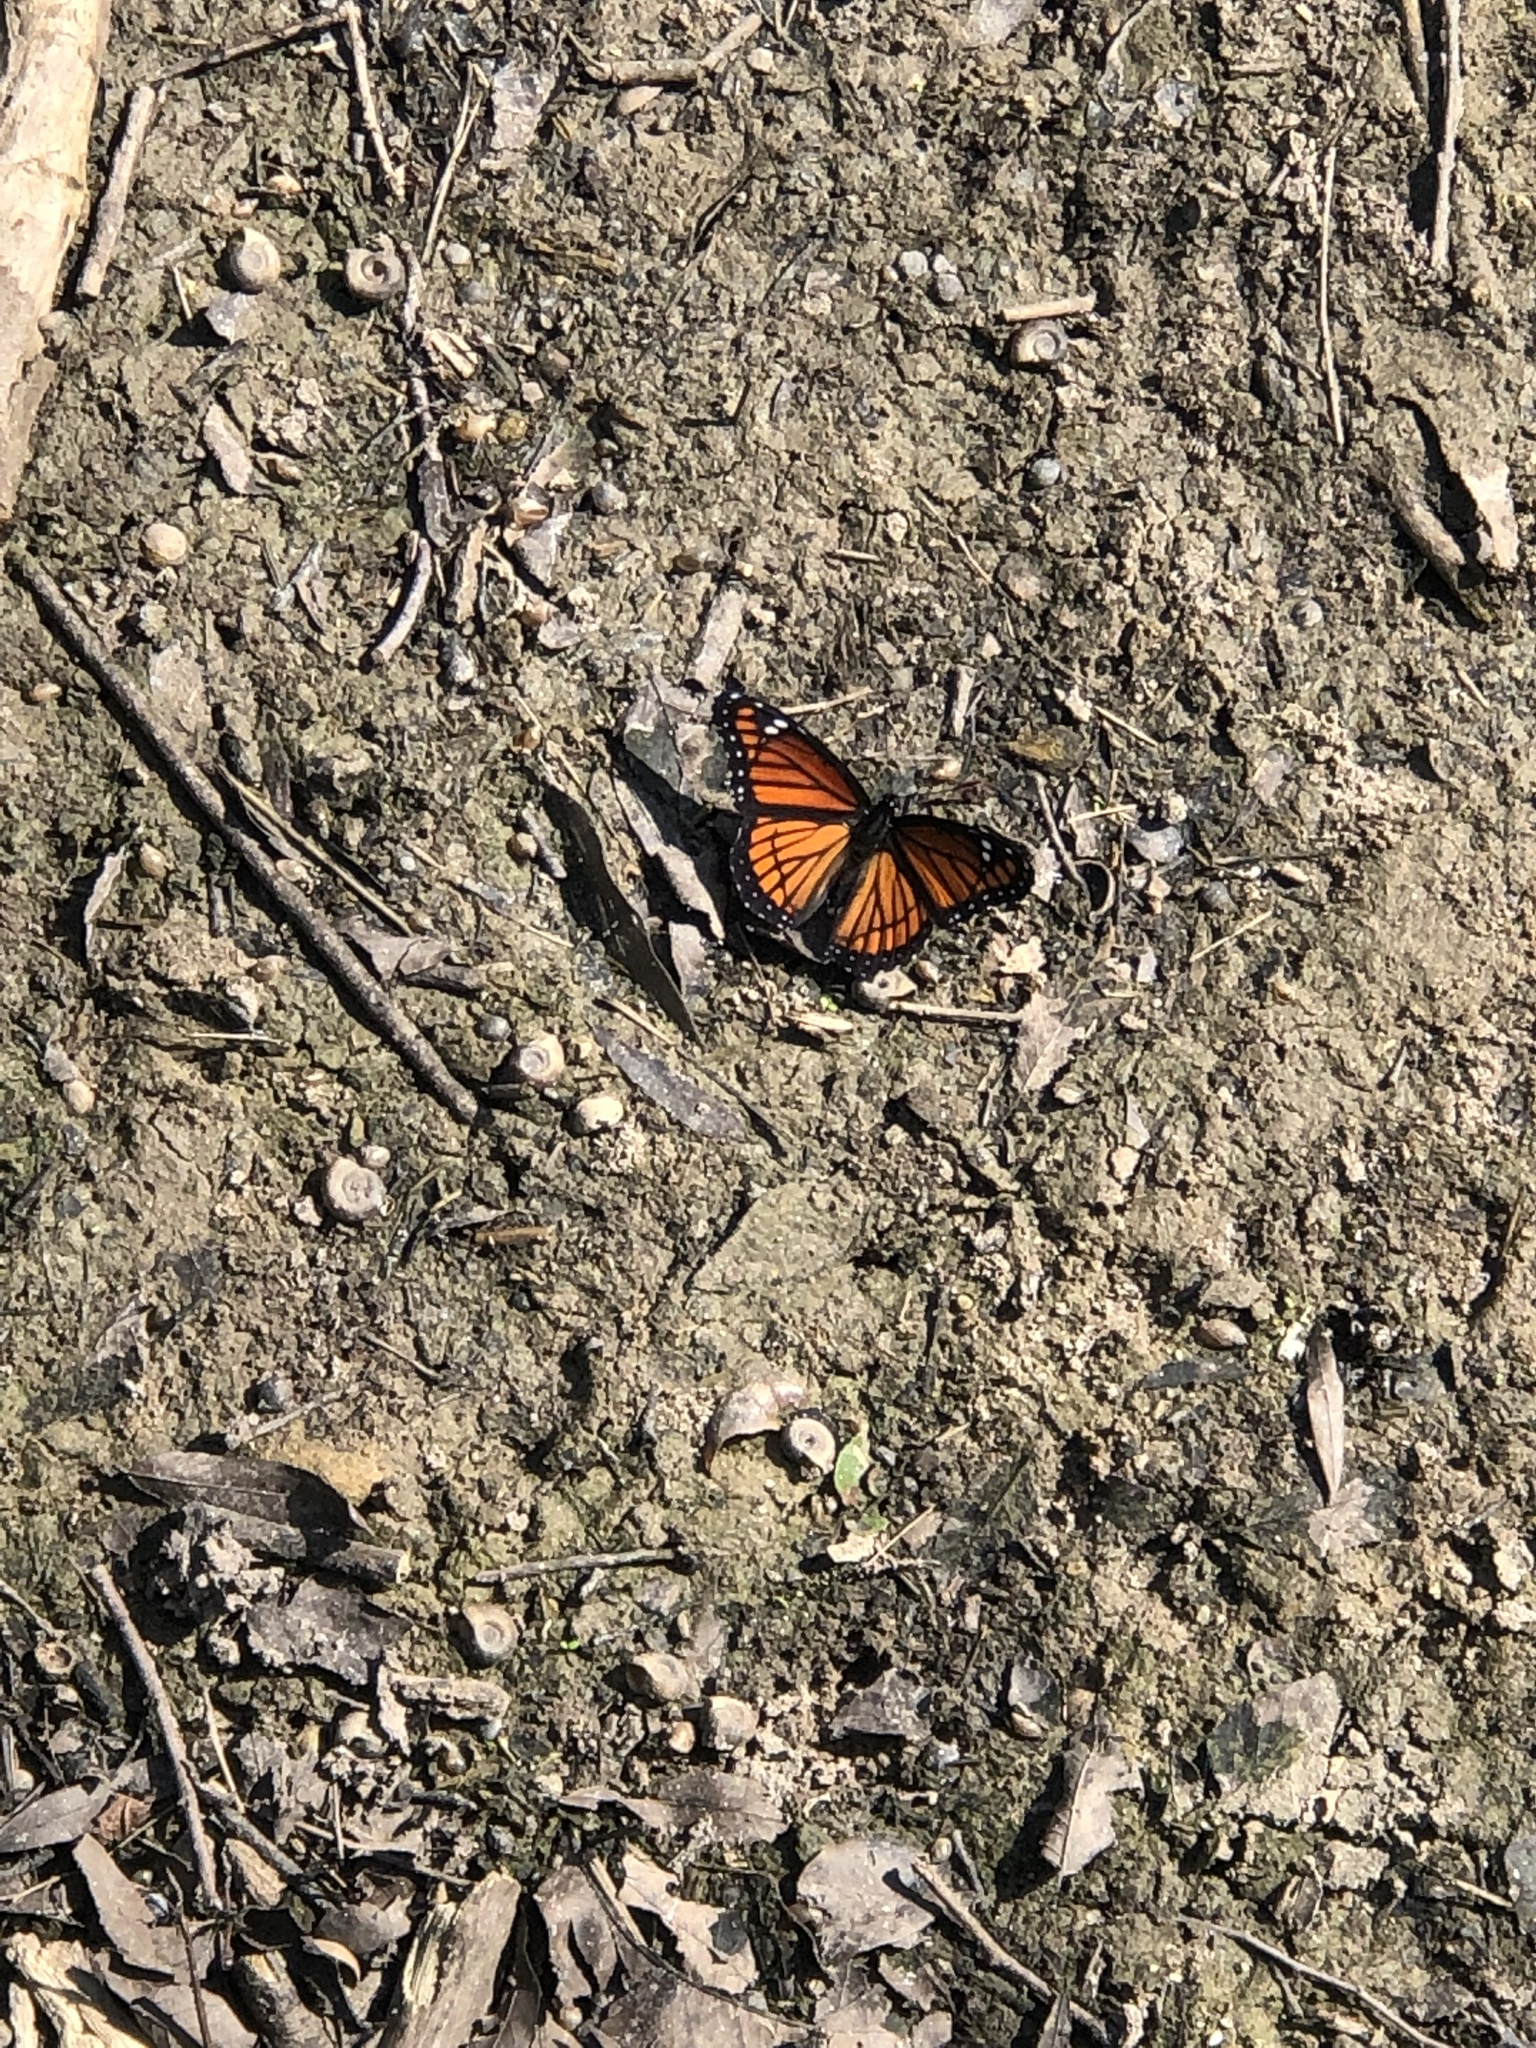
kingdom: Animalia
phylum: Arthropoda
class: Insecta
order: Lepidoptera
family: Nymphalidae
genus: Limenitis
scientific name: Limenitis archippus
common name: Viceroy
